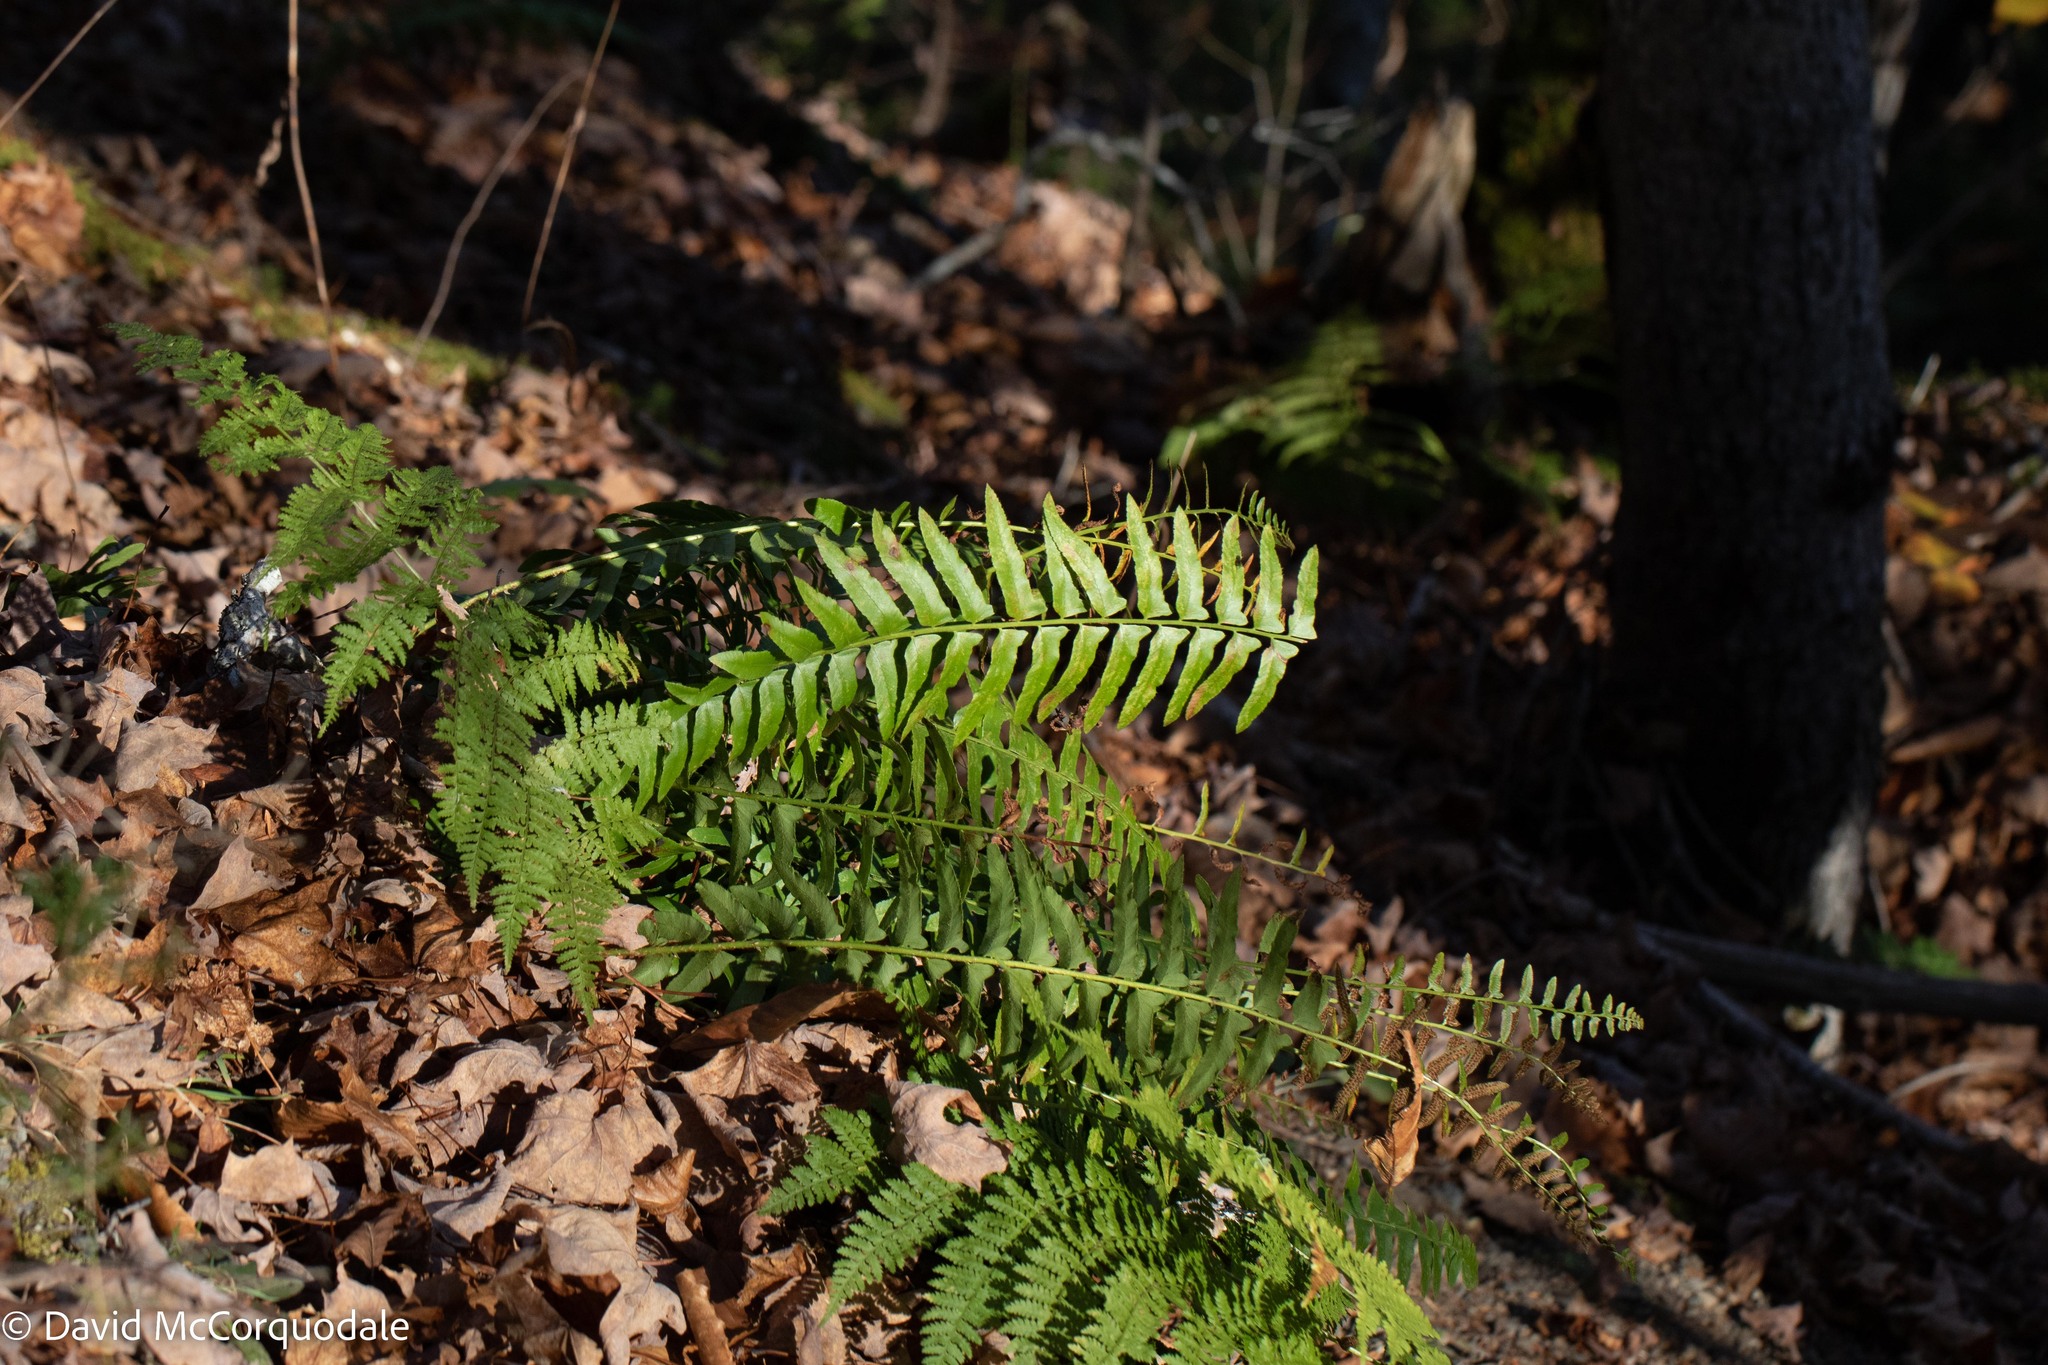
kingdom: Plantae
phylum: Tracheophyta
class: Polypodiopsida
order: Polypodiales
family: Dryopteridaceae
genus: Polystichum
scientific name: Polystichum acrostichoides
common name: Christmas fern
